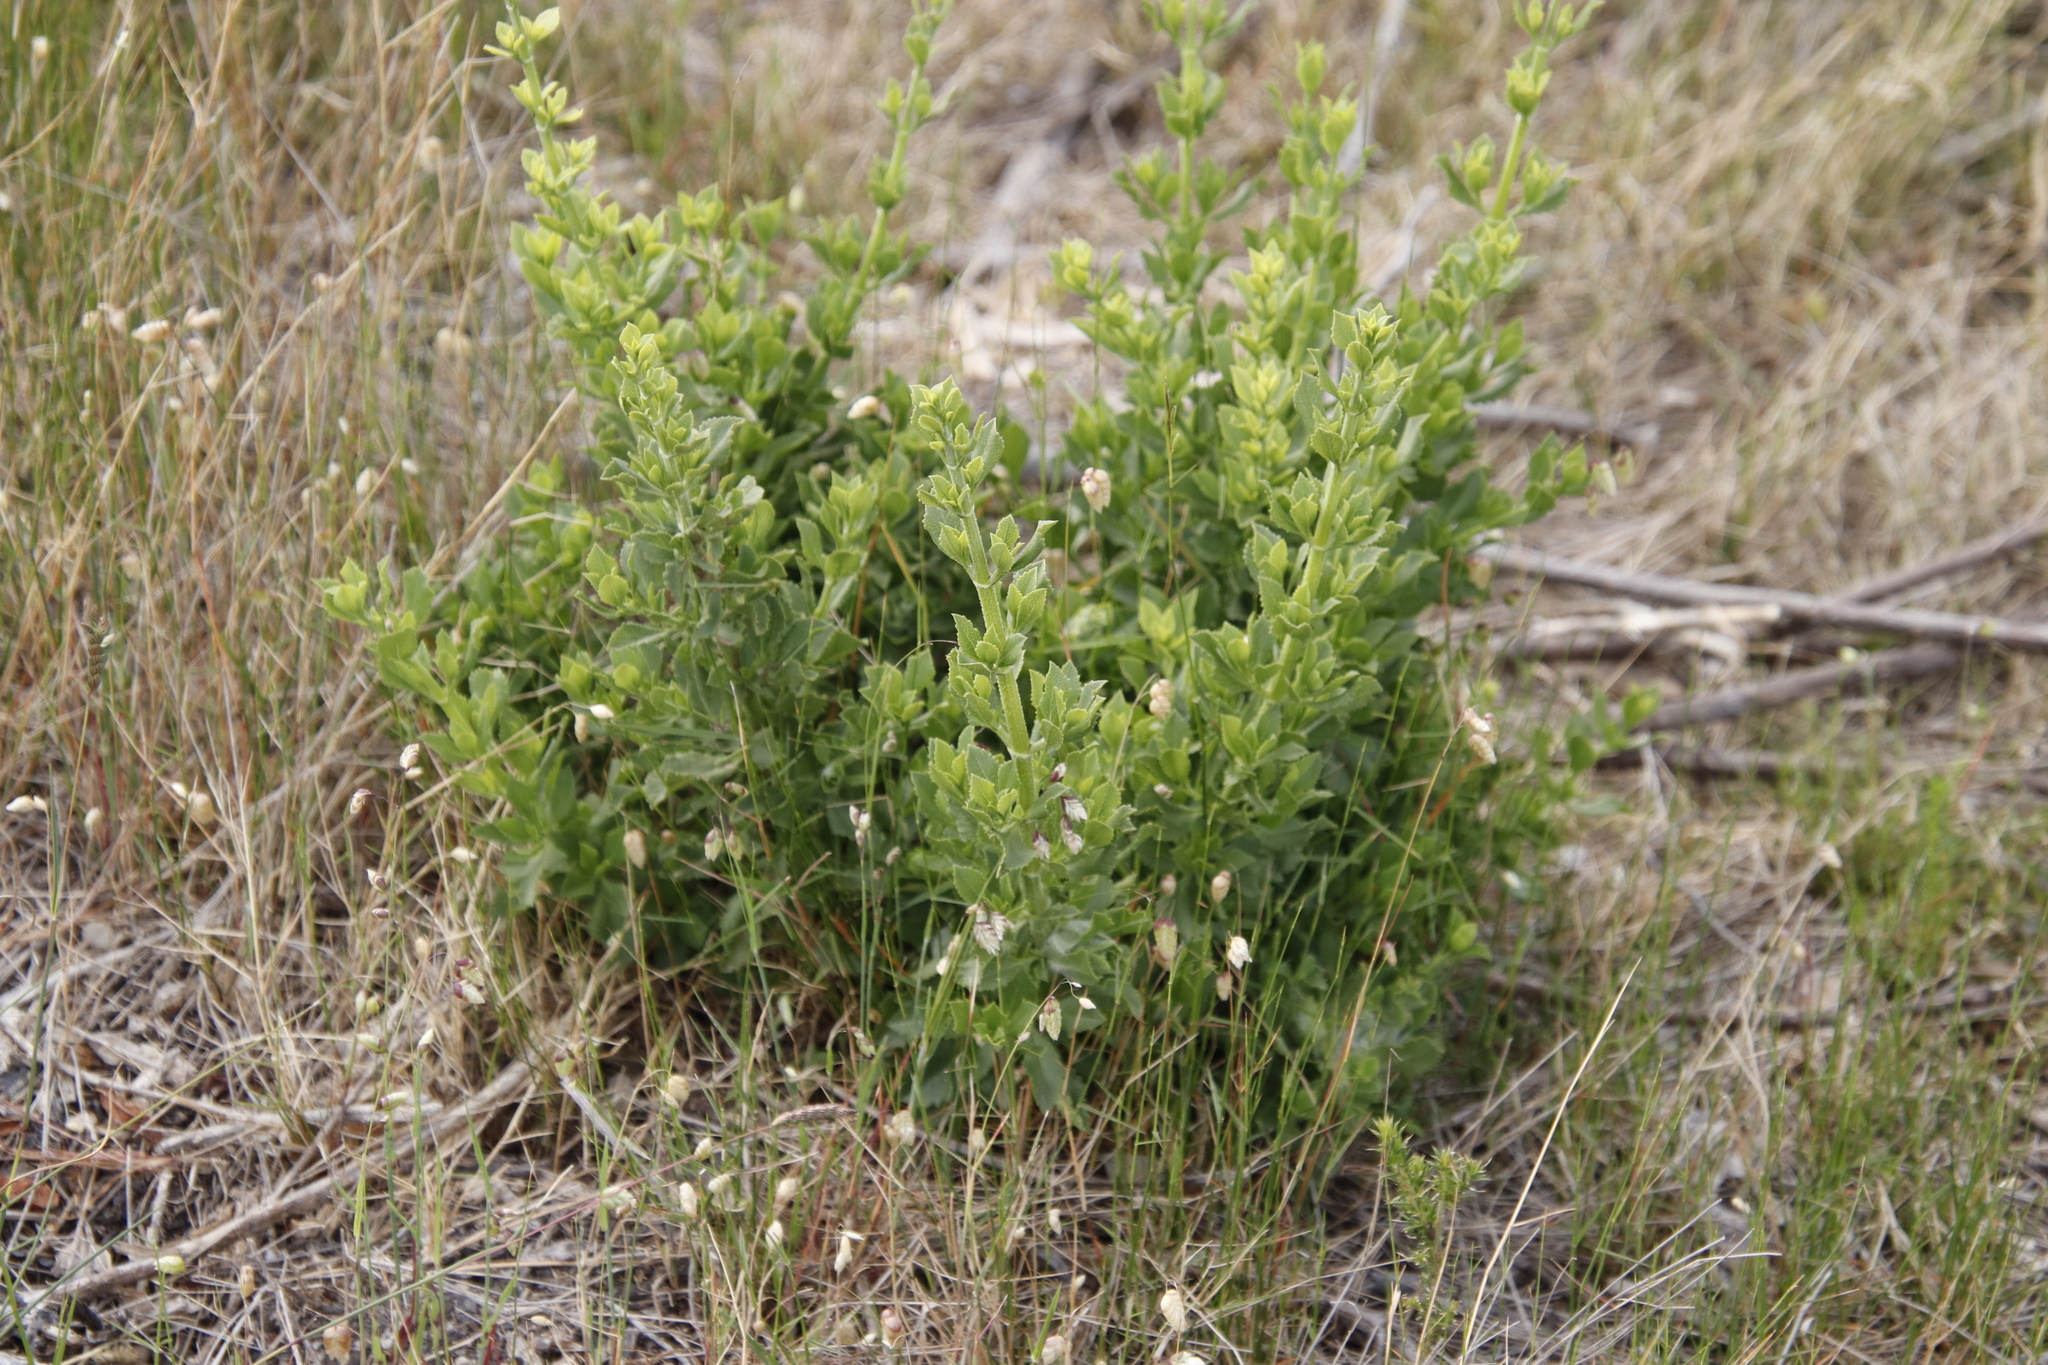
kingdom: Plantae
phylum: Tracheophyta
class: Magnoliopsida
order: Lamiales
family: Lamiaceae
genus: Salvia
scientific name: Salvia chamelaeagnea
